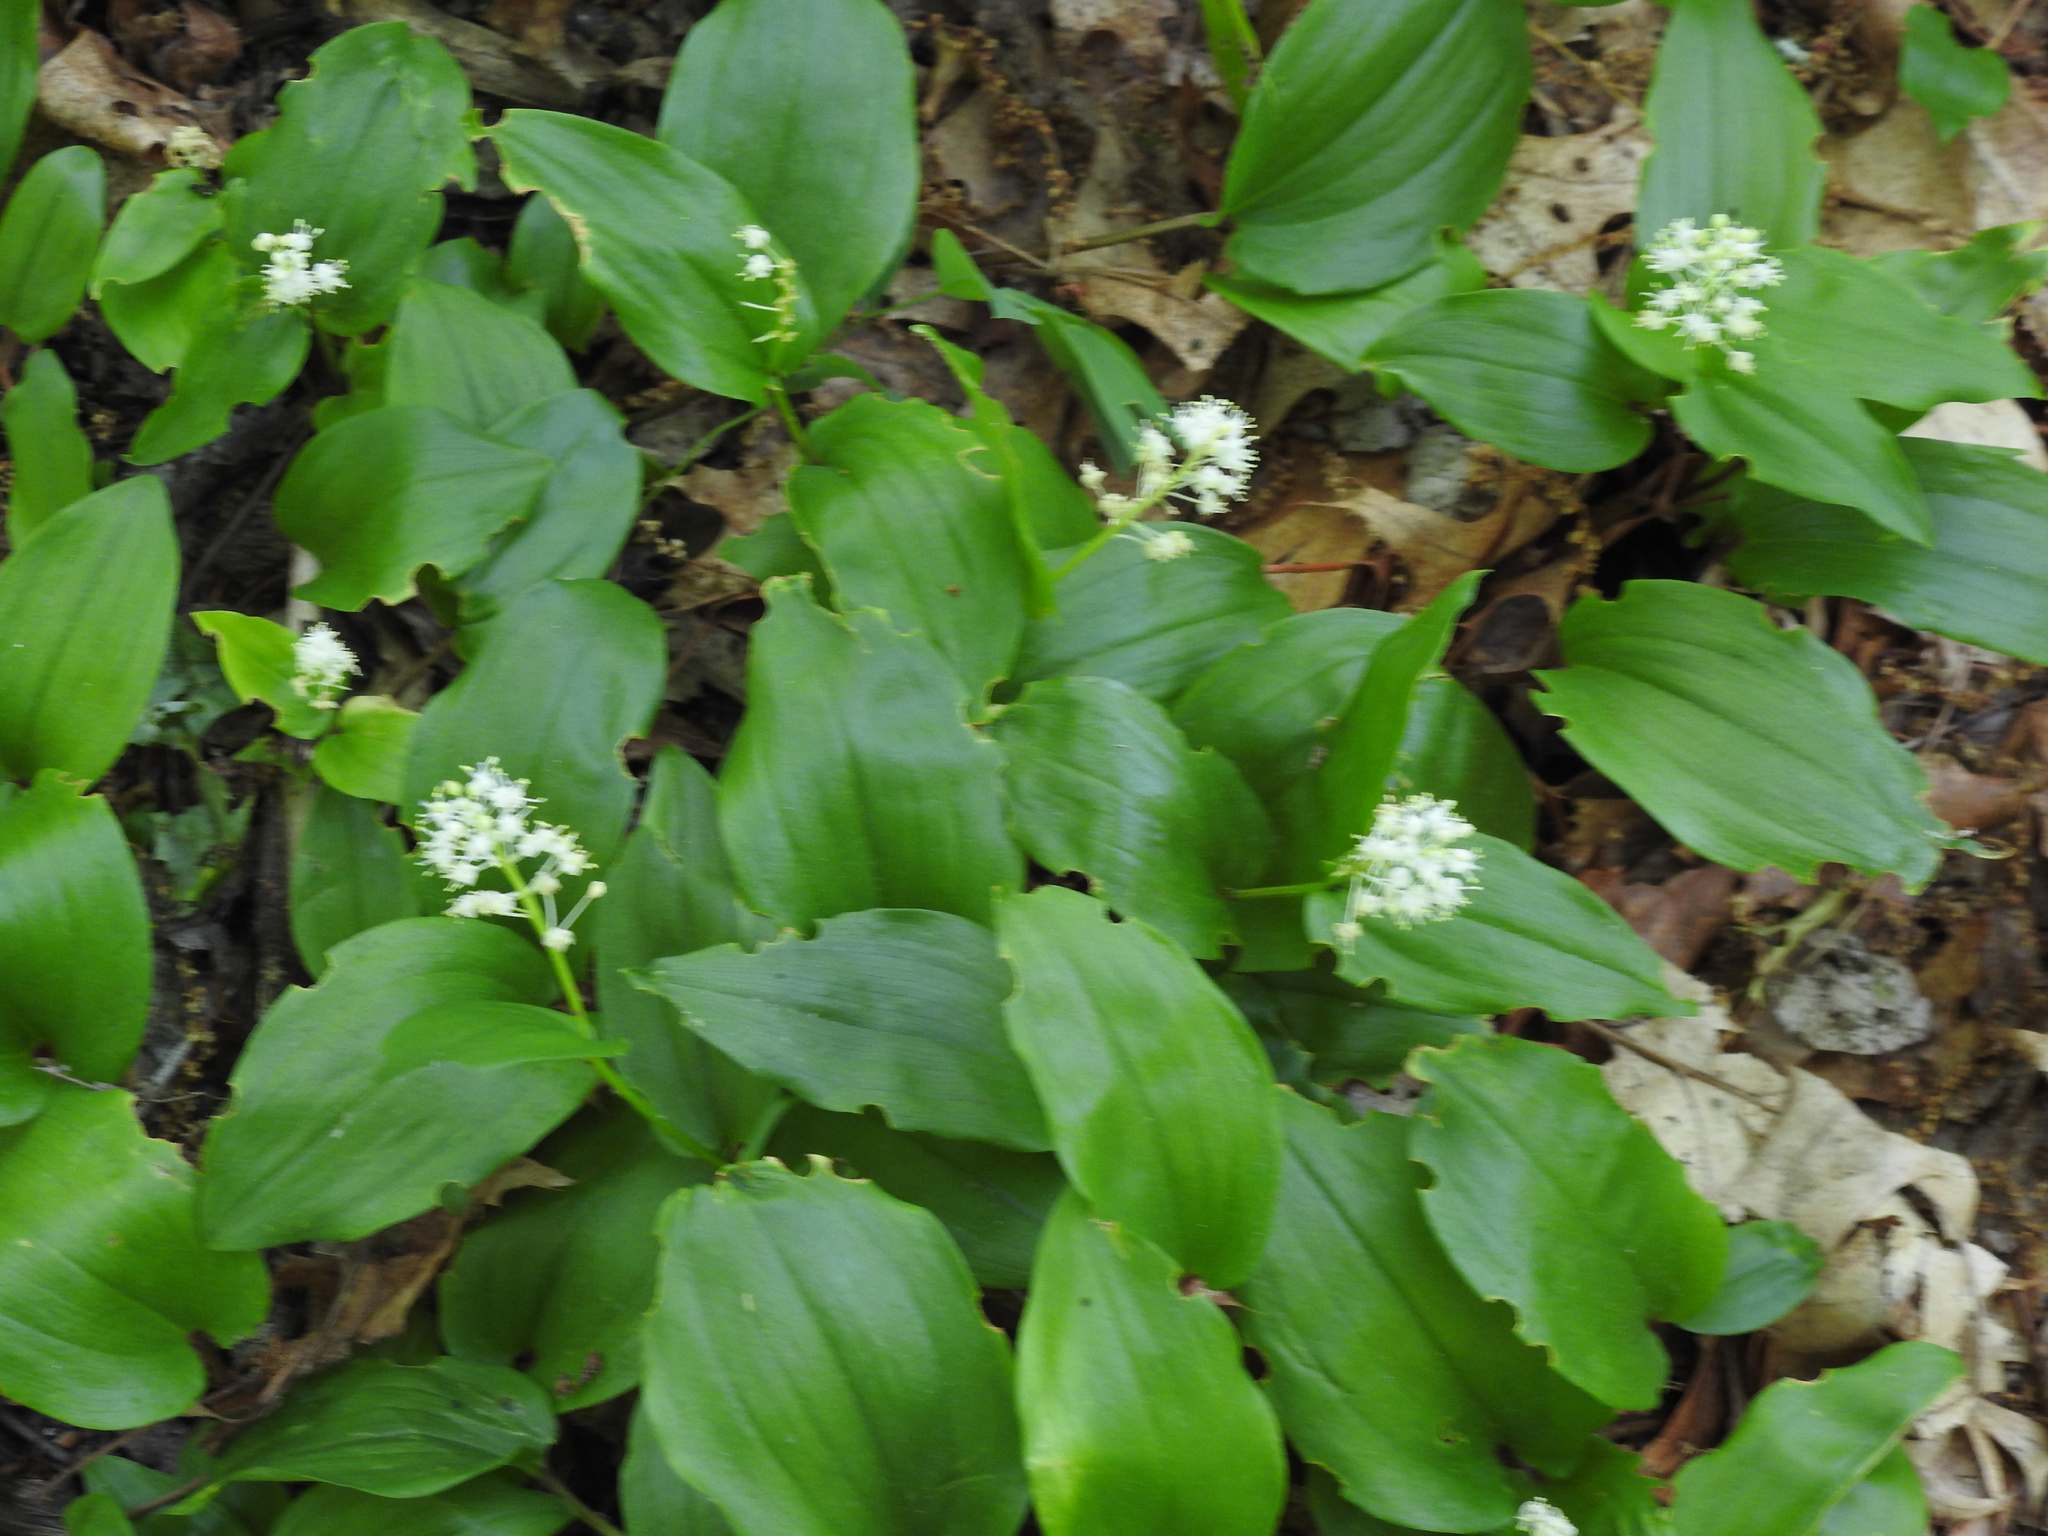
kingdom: Plantae
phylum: Tracheophyta
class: Liliopsida
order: Asparagales
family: Asparagaceae
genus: Maianthemum
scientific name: Maianthemum canadense
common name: False lily-of-the-valley
